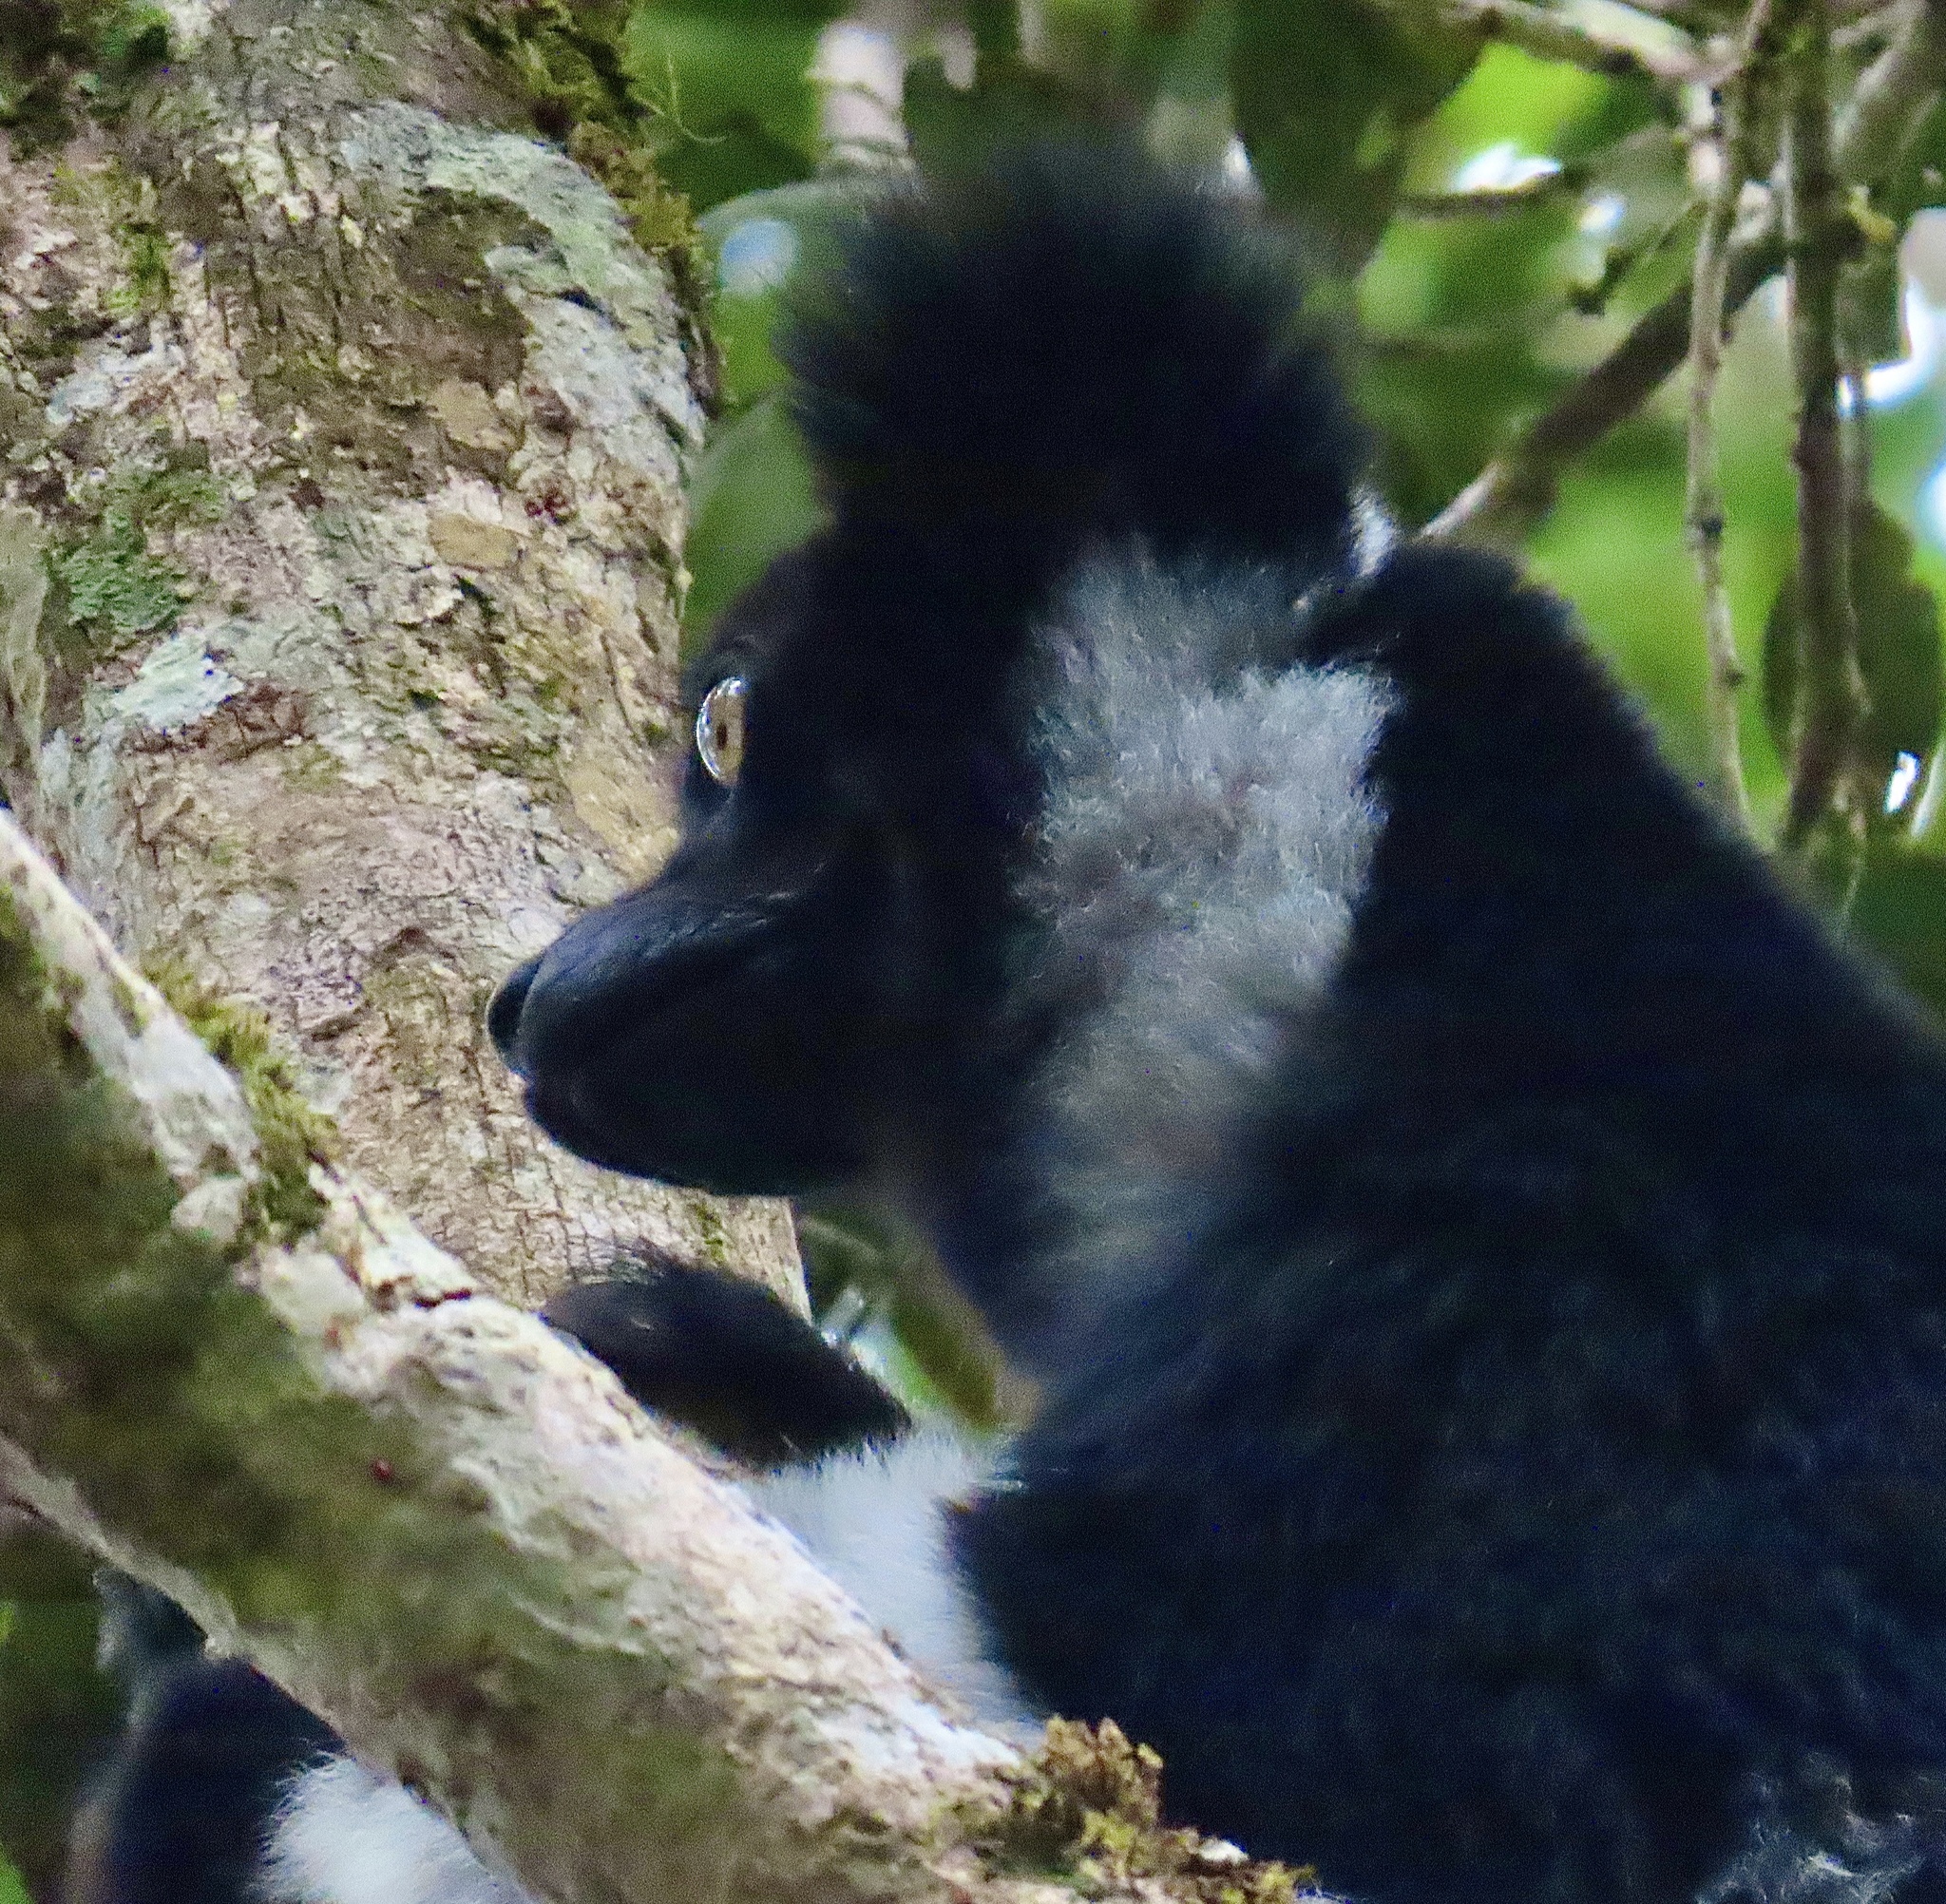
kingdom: Animalia
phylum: Chordata
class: Mammalia
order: Primates
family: Indriidae
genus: Indri
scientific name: Indri indri
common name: Indri
